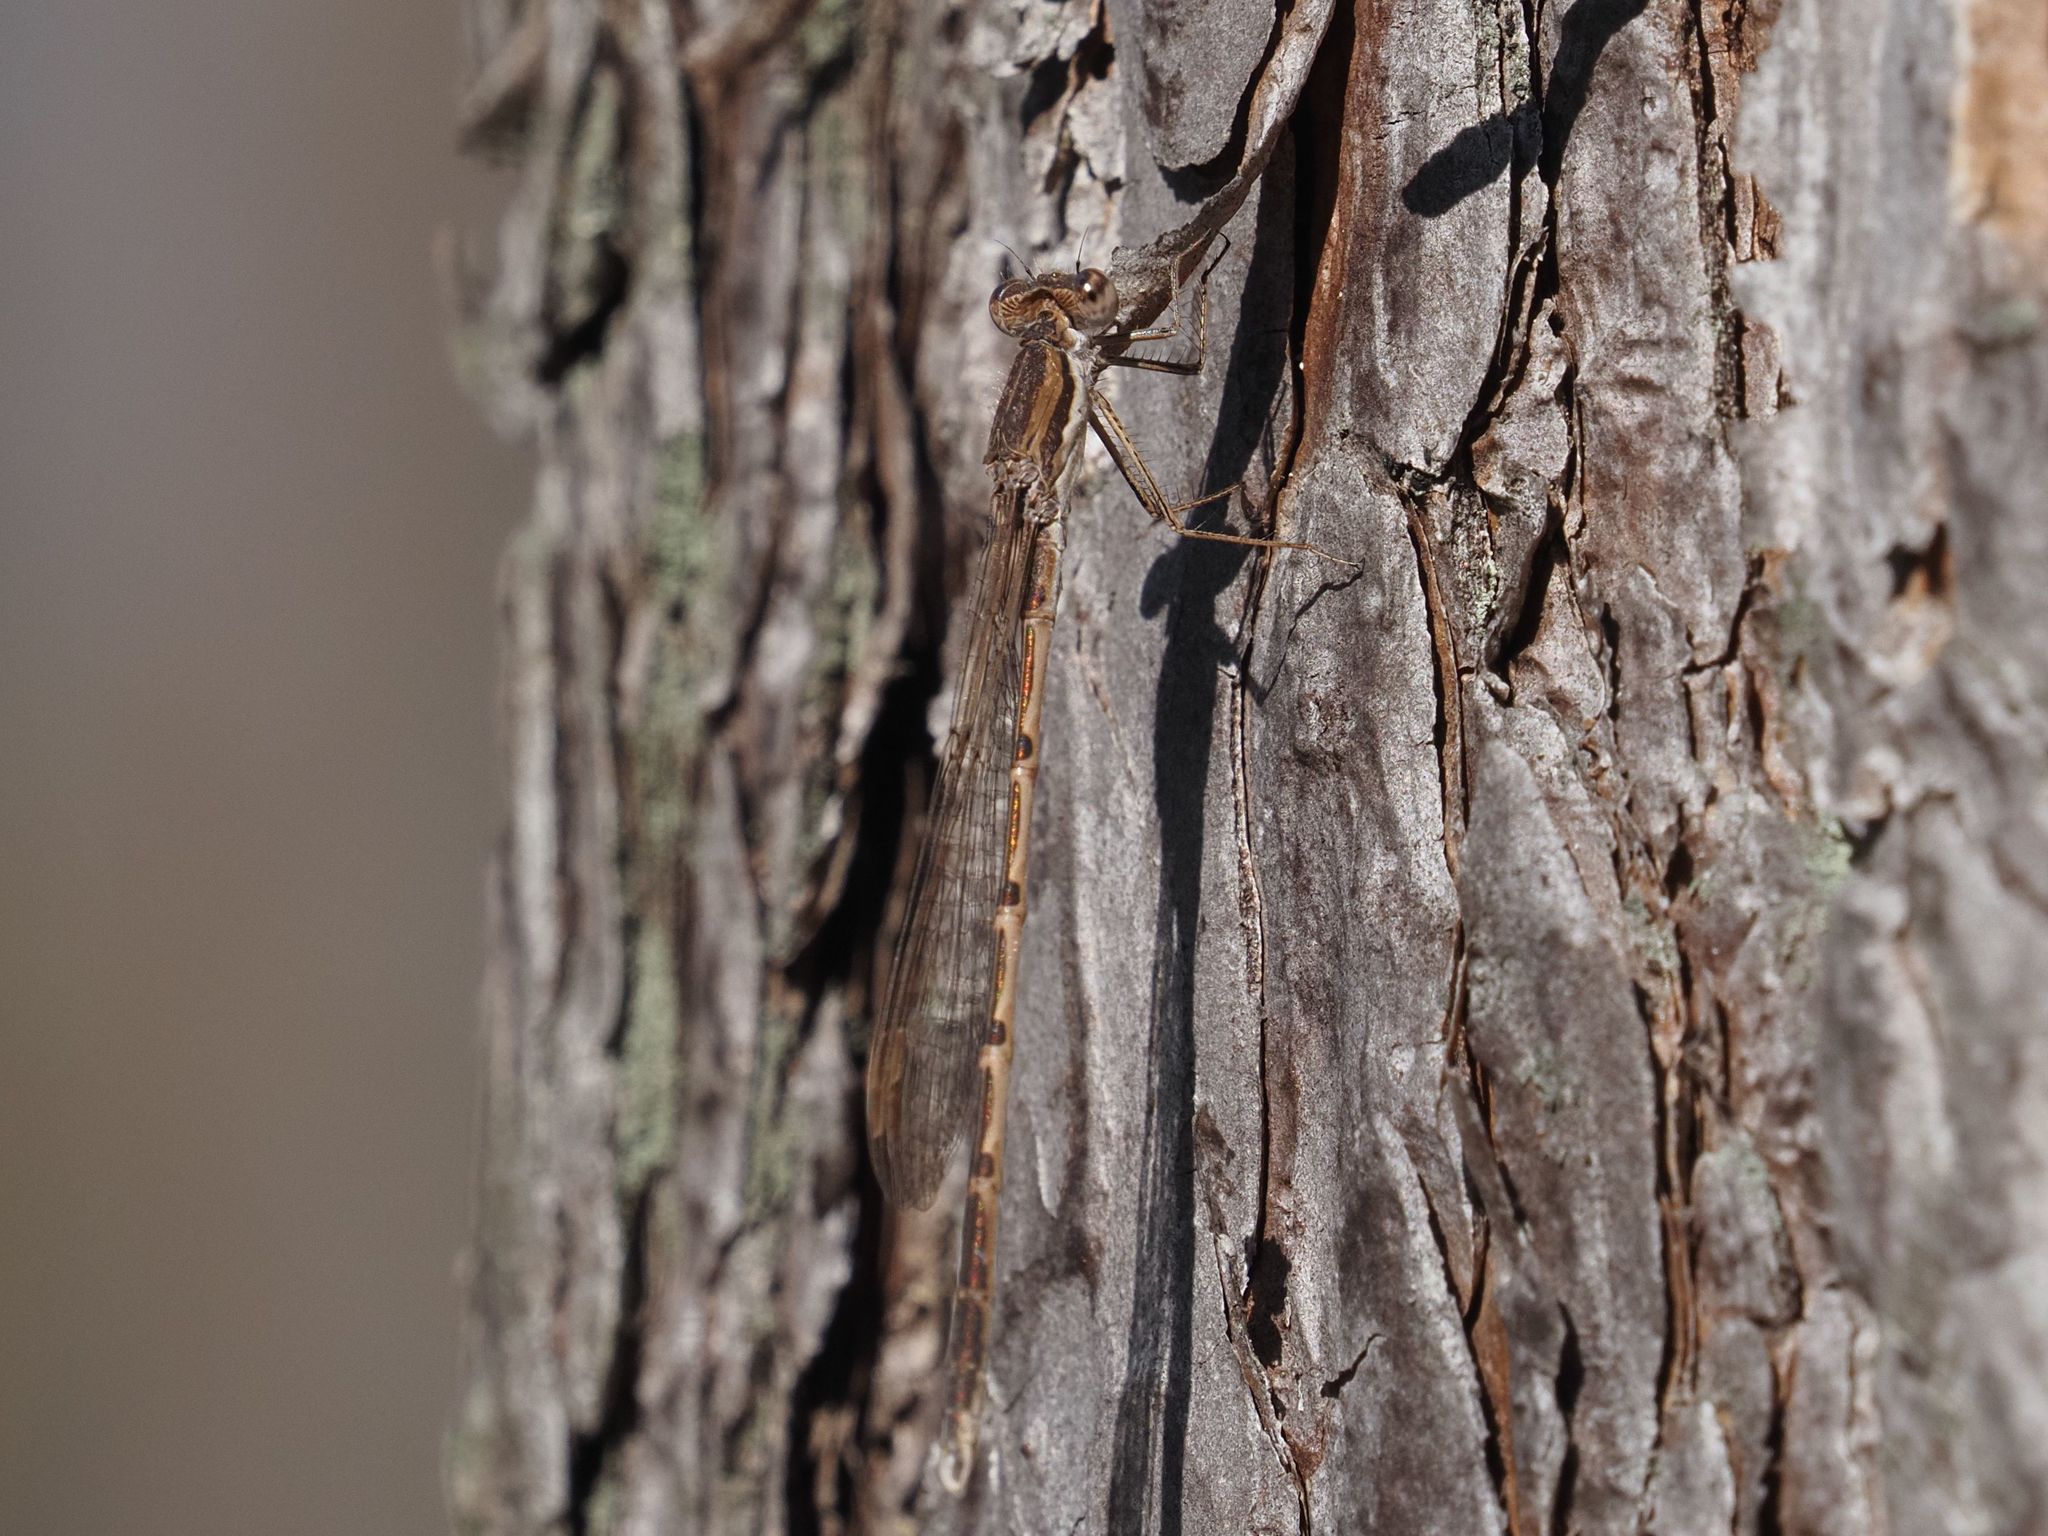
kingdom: Animalia
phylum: Arthropoda
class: Insecta
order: Odonata
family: Lestidae
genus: Sympecma
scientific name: Sympecma fusca
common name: Common winter damsel
